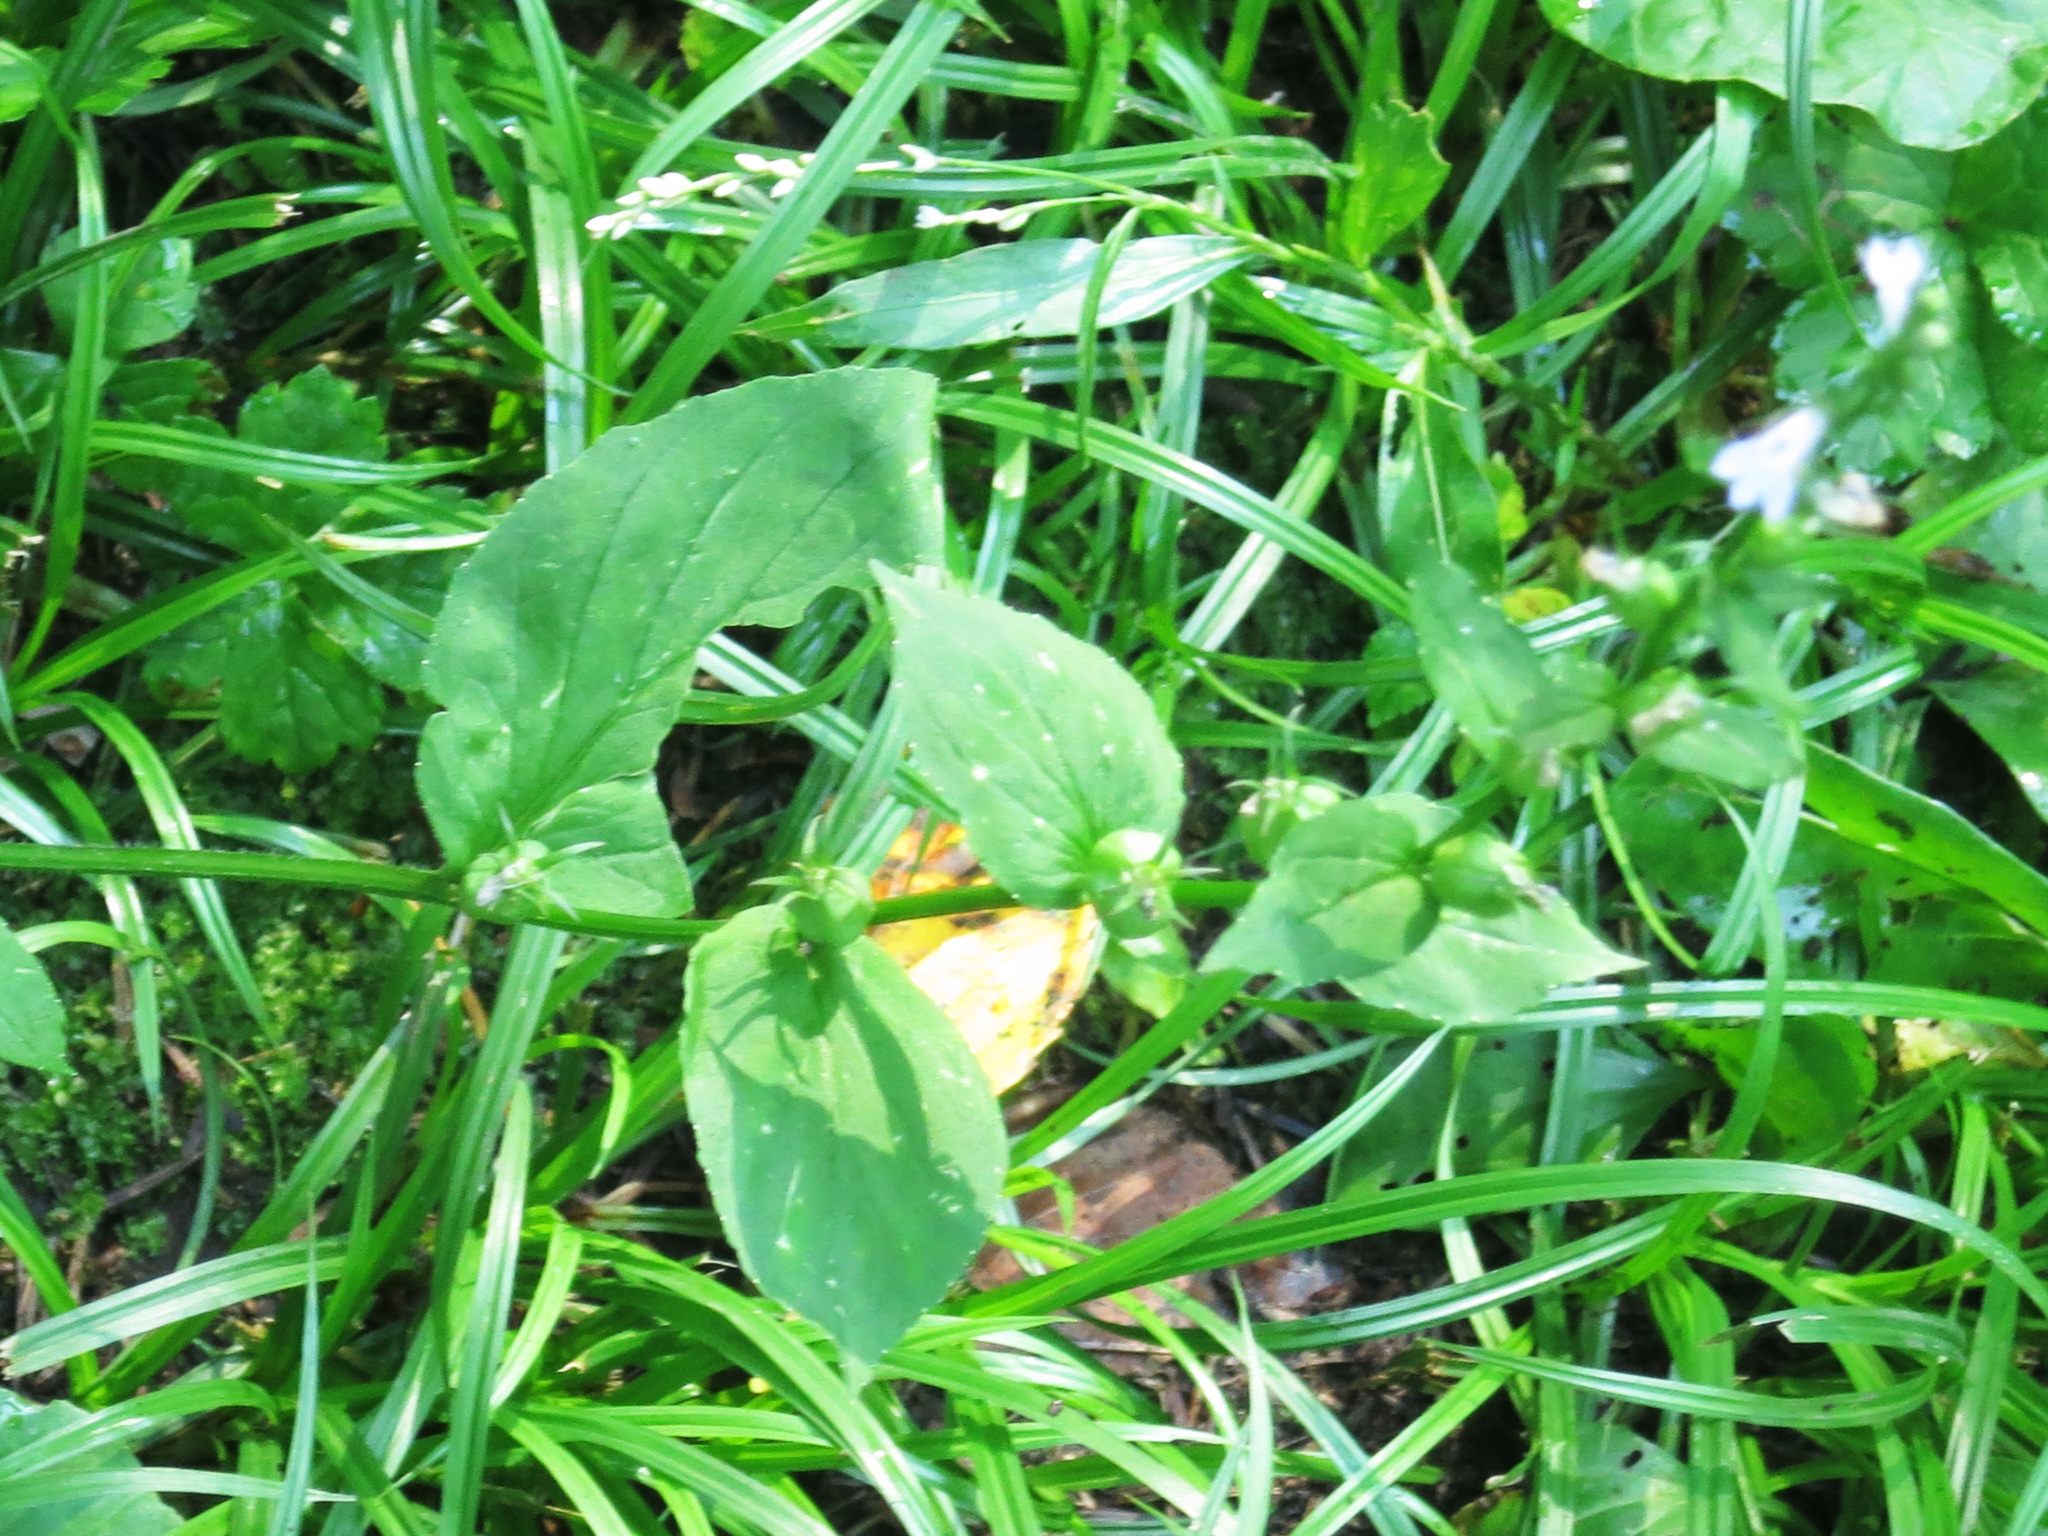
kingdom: Plantae
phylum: Tracheophyta
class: Magnoliopsida
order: Asterales
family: Campanulaceae
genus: Lobelia
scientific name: Lobelia inflata
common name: Indian tobacco
